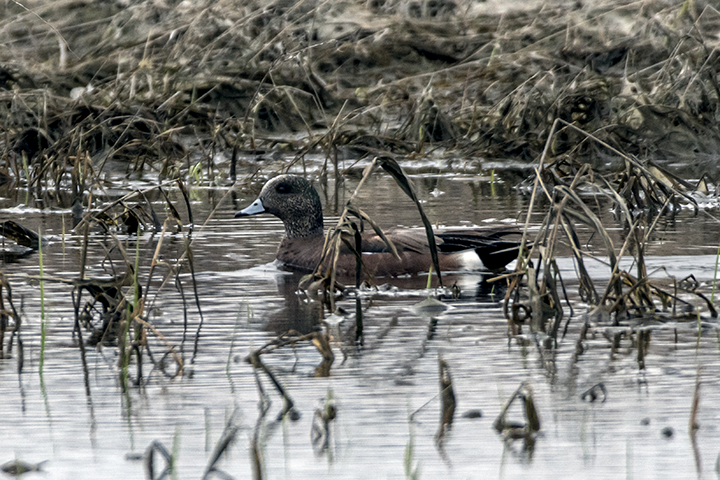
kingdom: Animalia
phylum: Chordata
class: Aves
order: Anseriformes
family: Anatidae
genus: Mareca
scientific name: Mareca americana
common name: American wigeon
